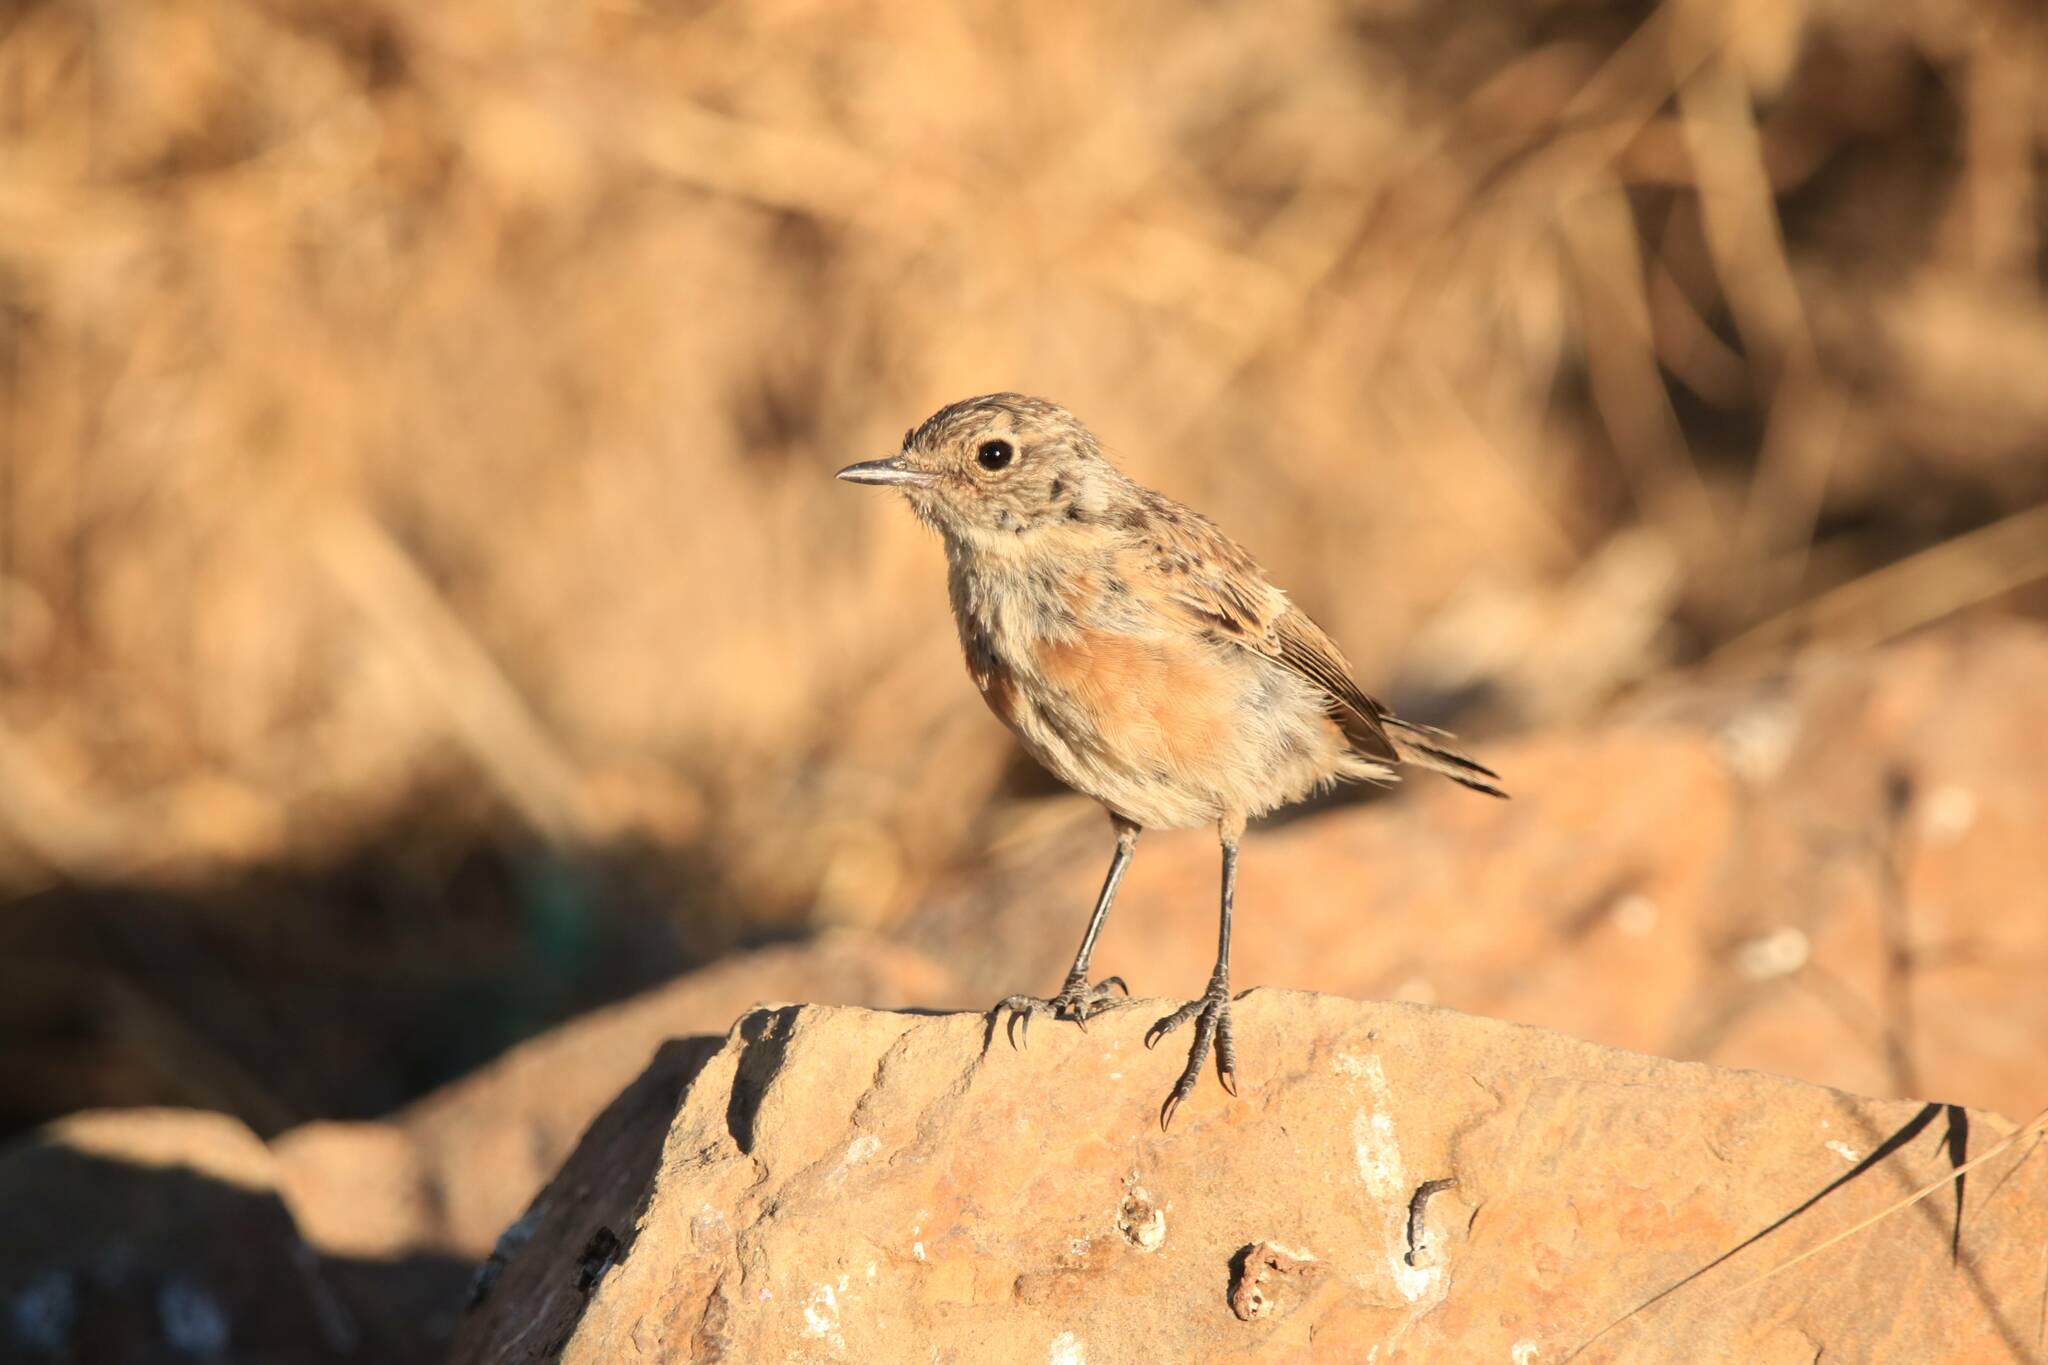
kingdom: Animalia
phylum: Chordata
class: Aves
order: Passeriformes
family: Muscicapidae
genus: Phoenicurus
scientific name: Phoenicurus moussieri
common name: Moussier's redstart
